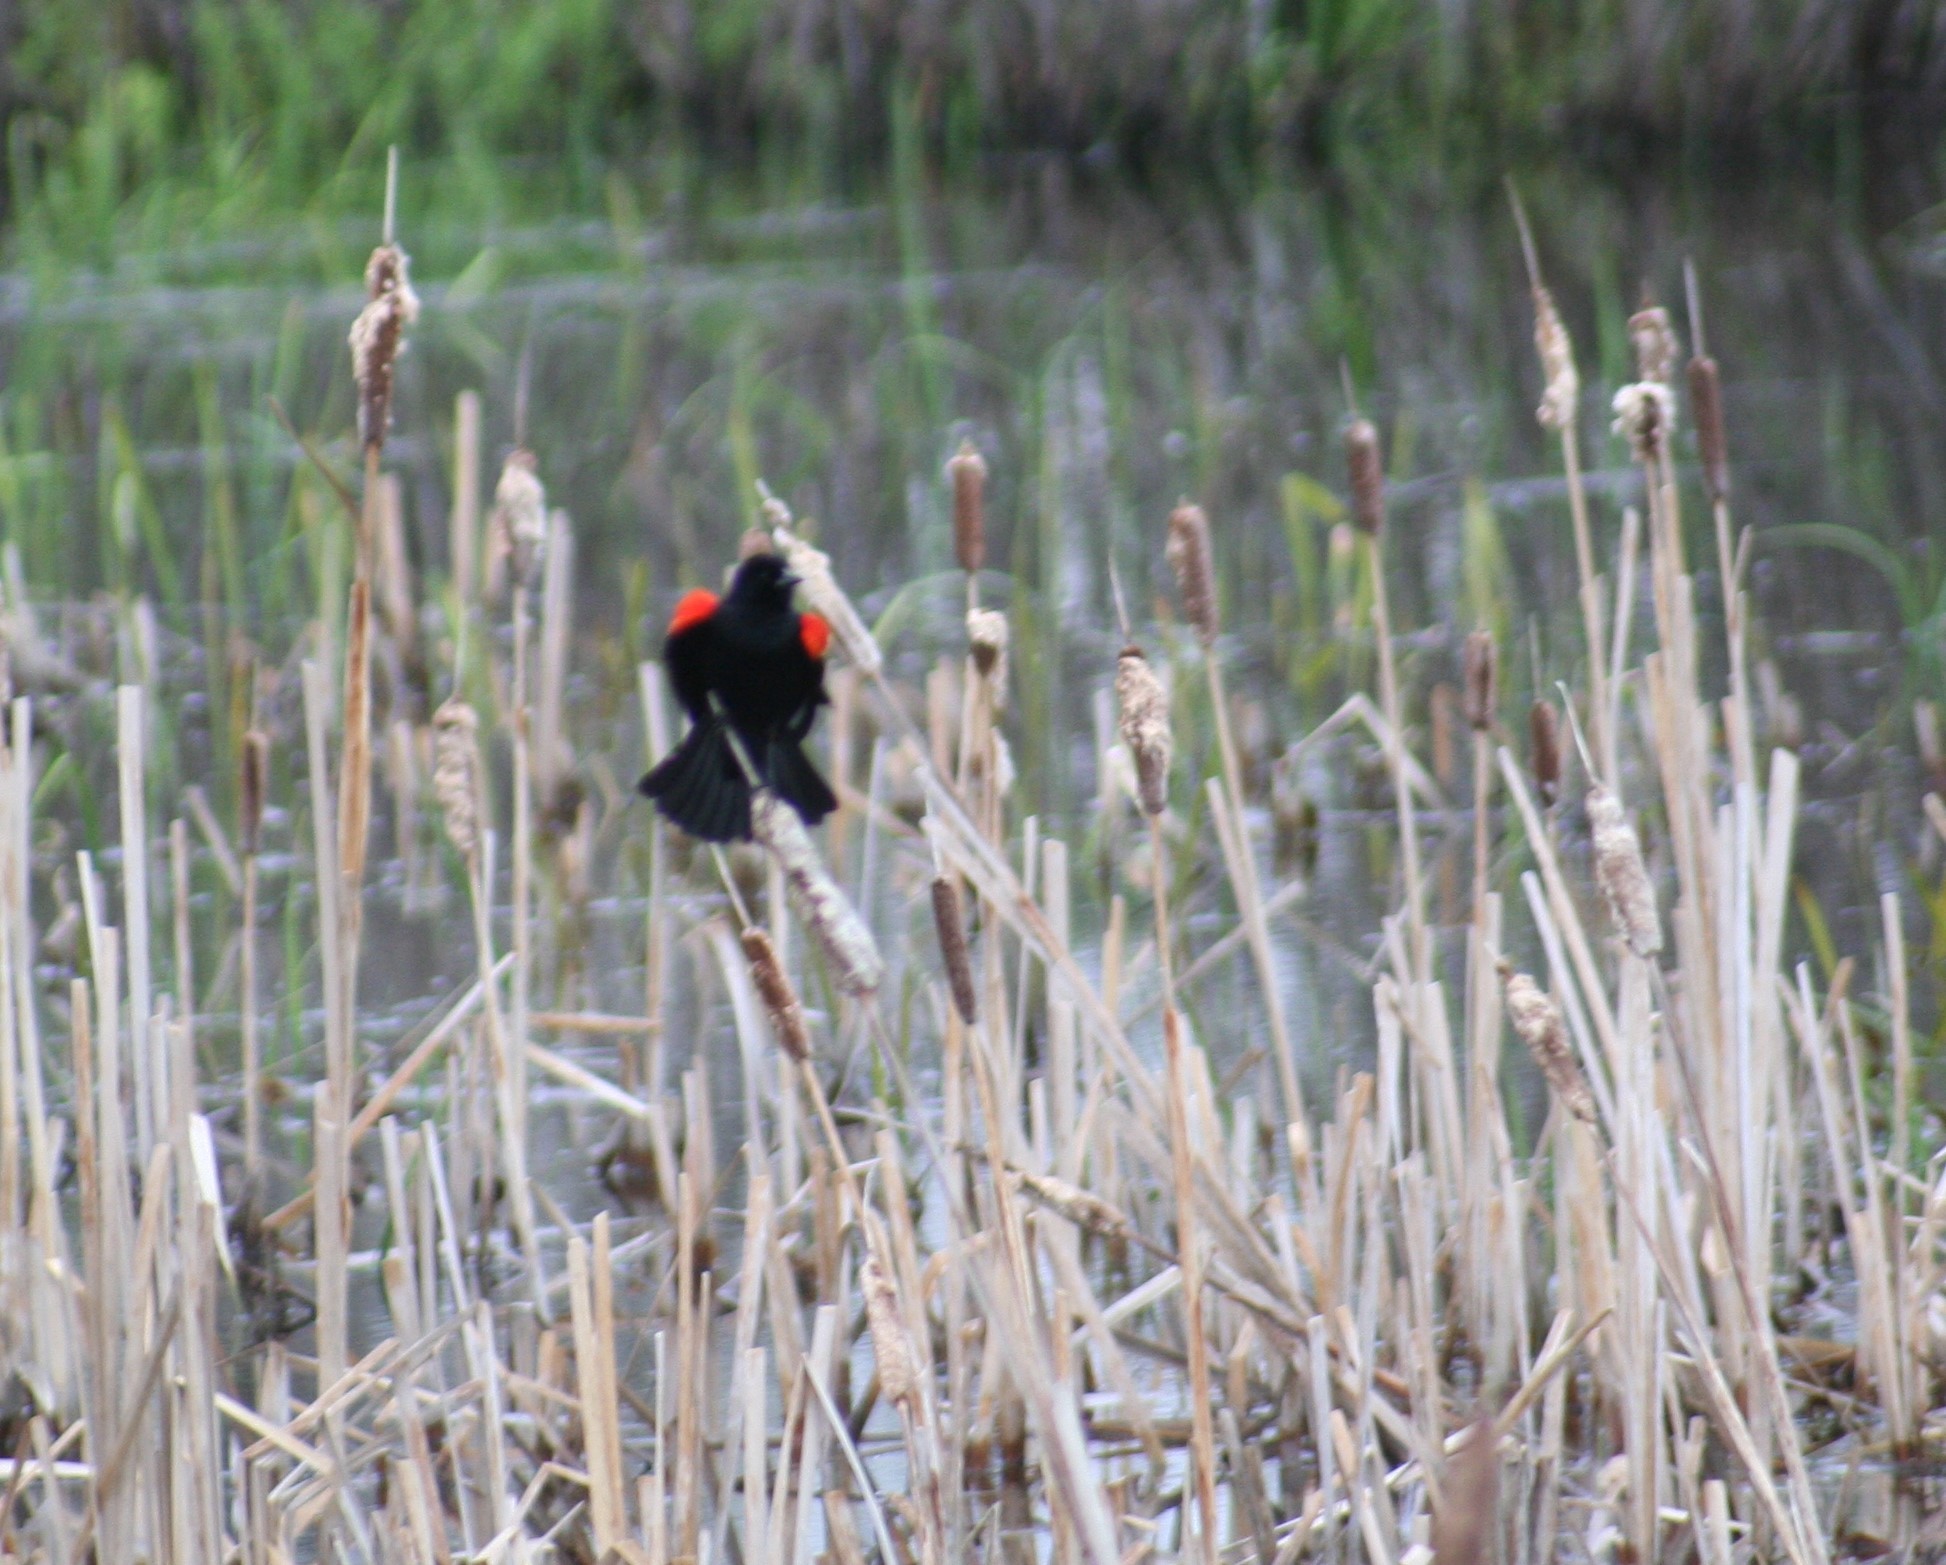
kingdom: Animalia
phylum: Chordata
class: Aves
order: Passeriformes
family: Icteridae
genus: Agelaius
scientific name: Agelaius phoeniceus
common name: Red-winged blackbird
